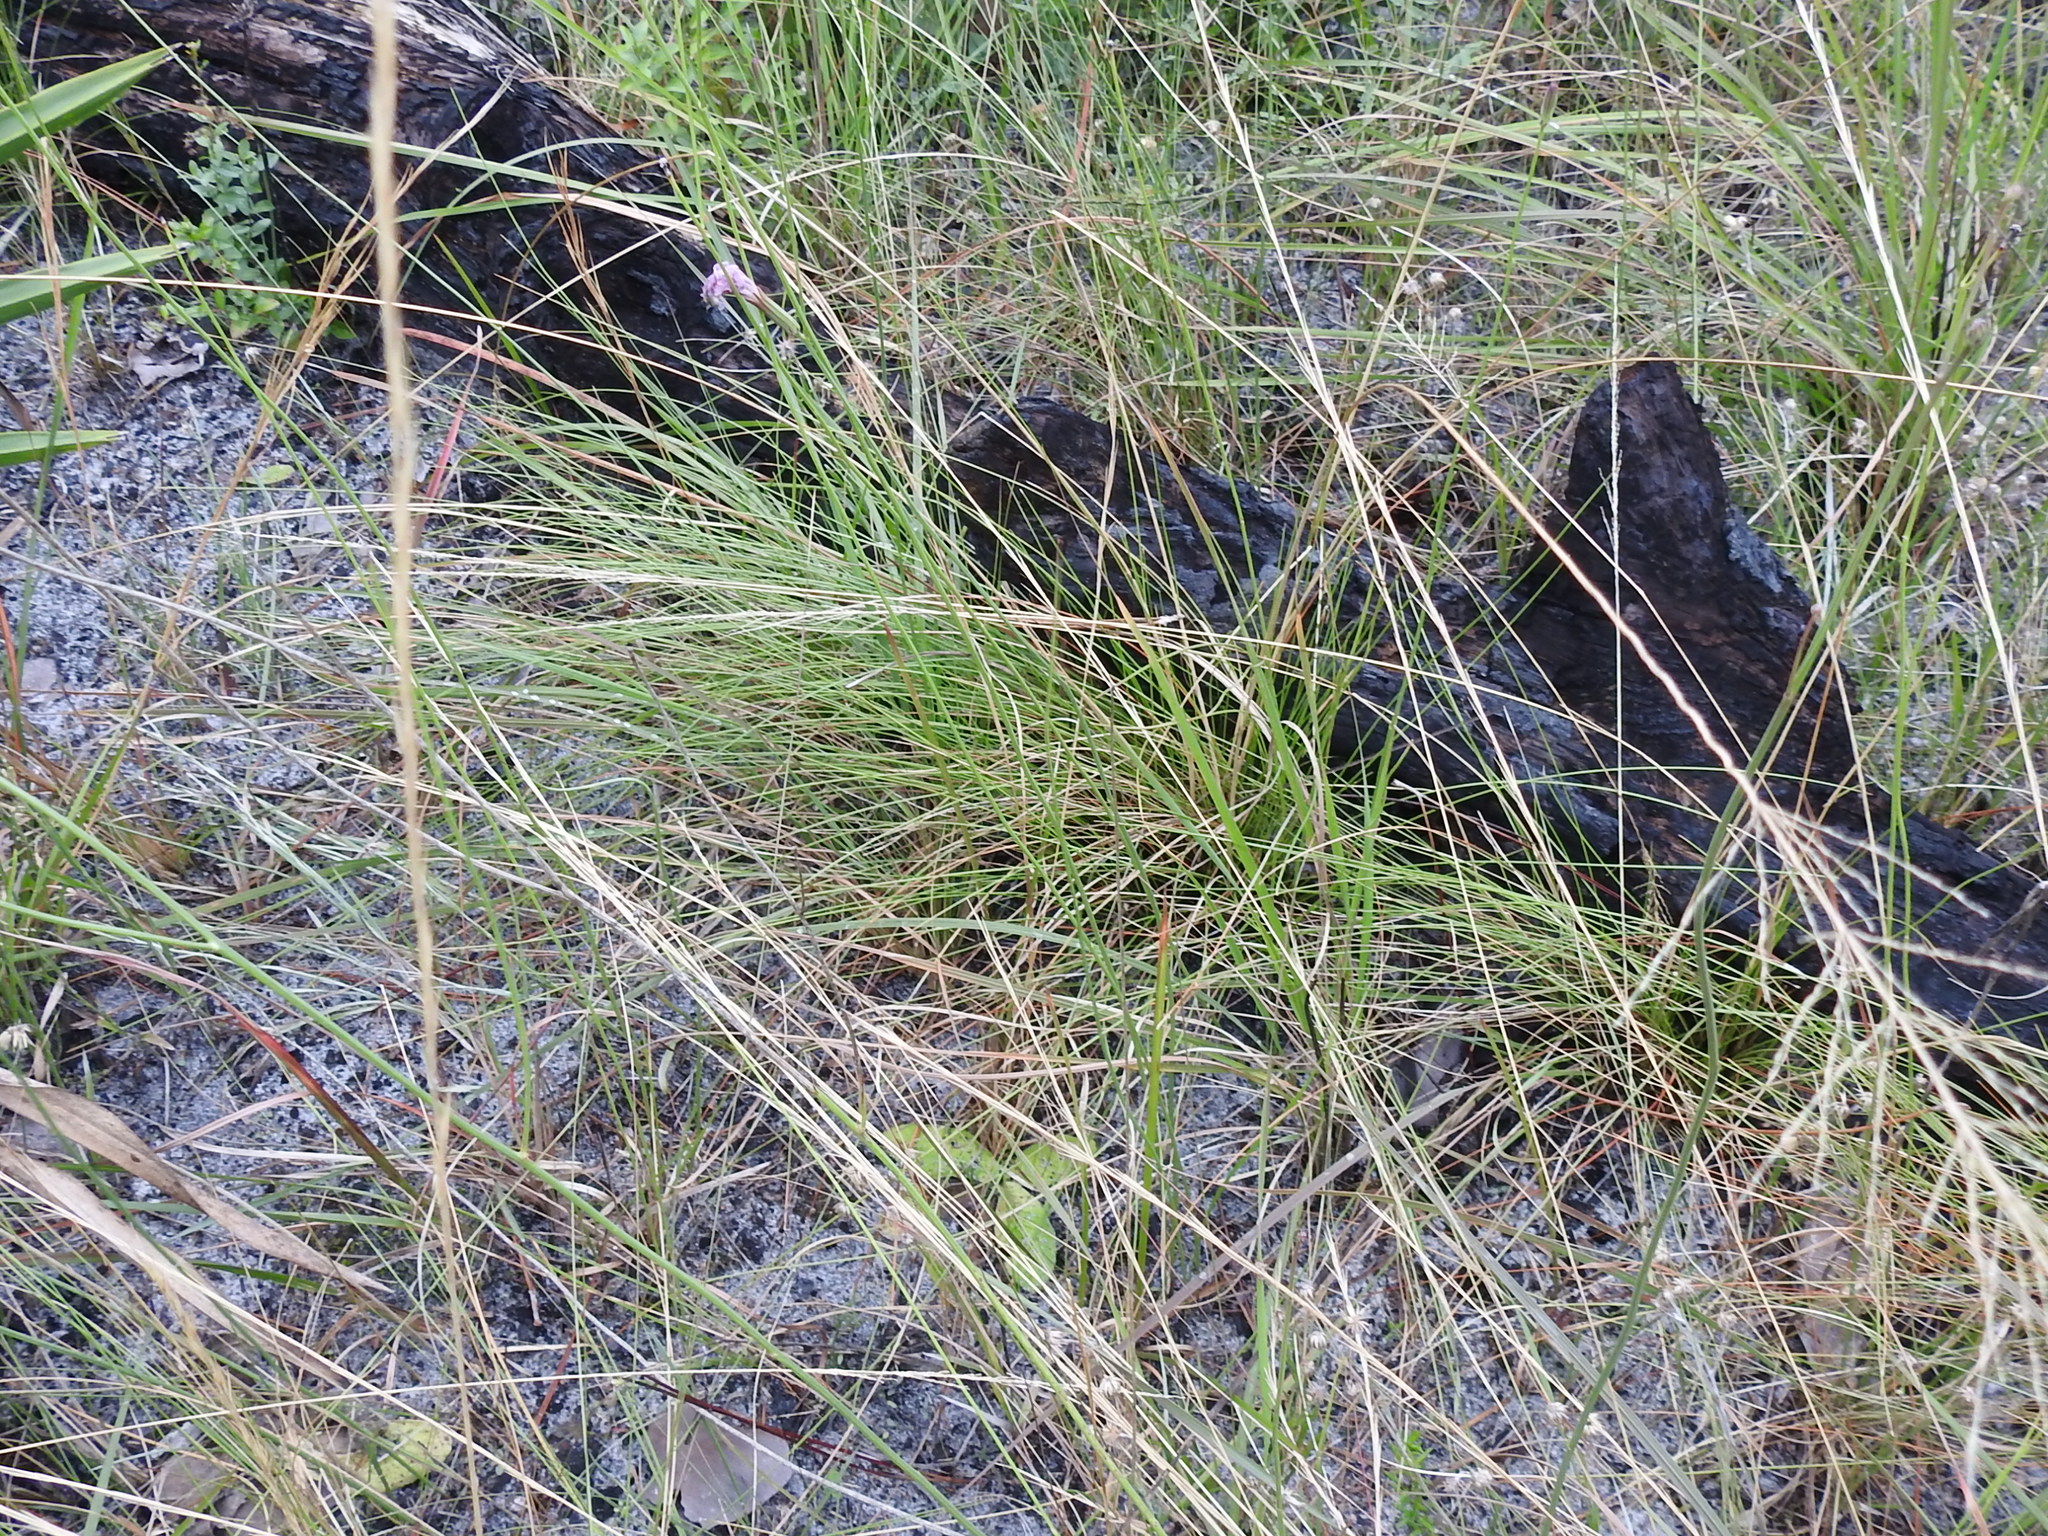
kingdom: Plantae
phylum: Tracheophyta
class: Magnoliopsida
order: Asterales
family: Asteraceae
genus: Lygodesmia
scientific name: Lygodesmia aphylla
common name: Rose-rush
